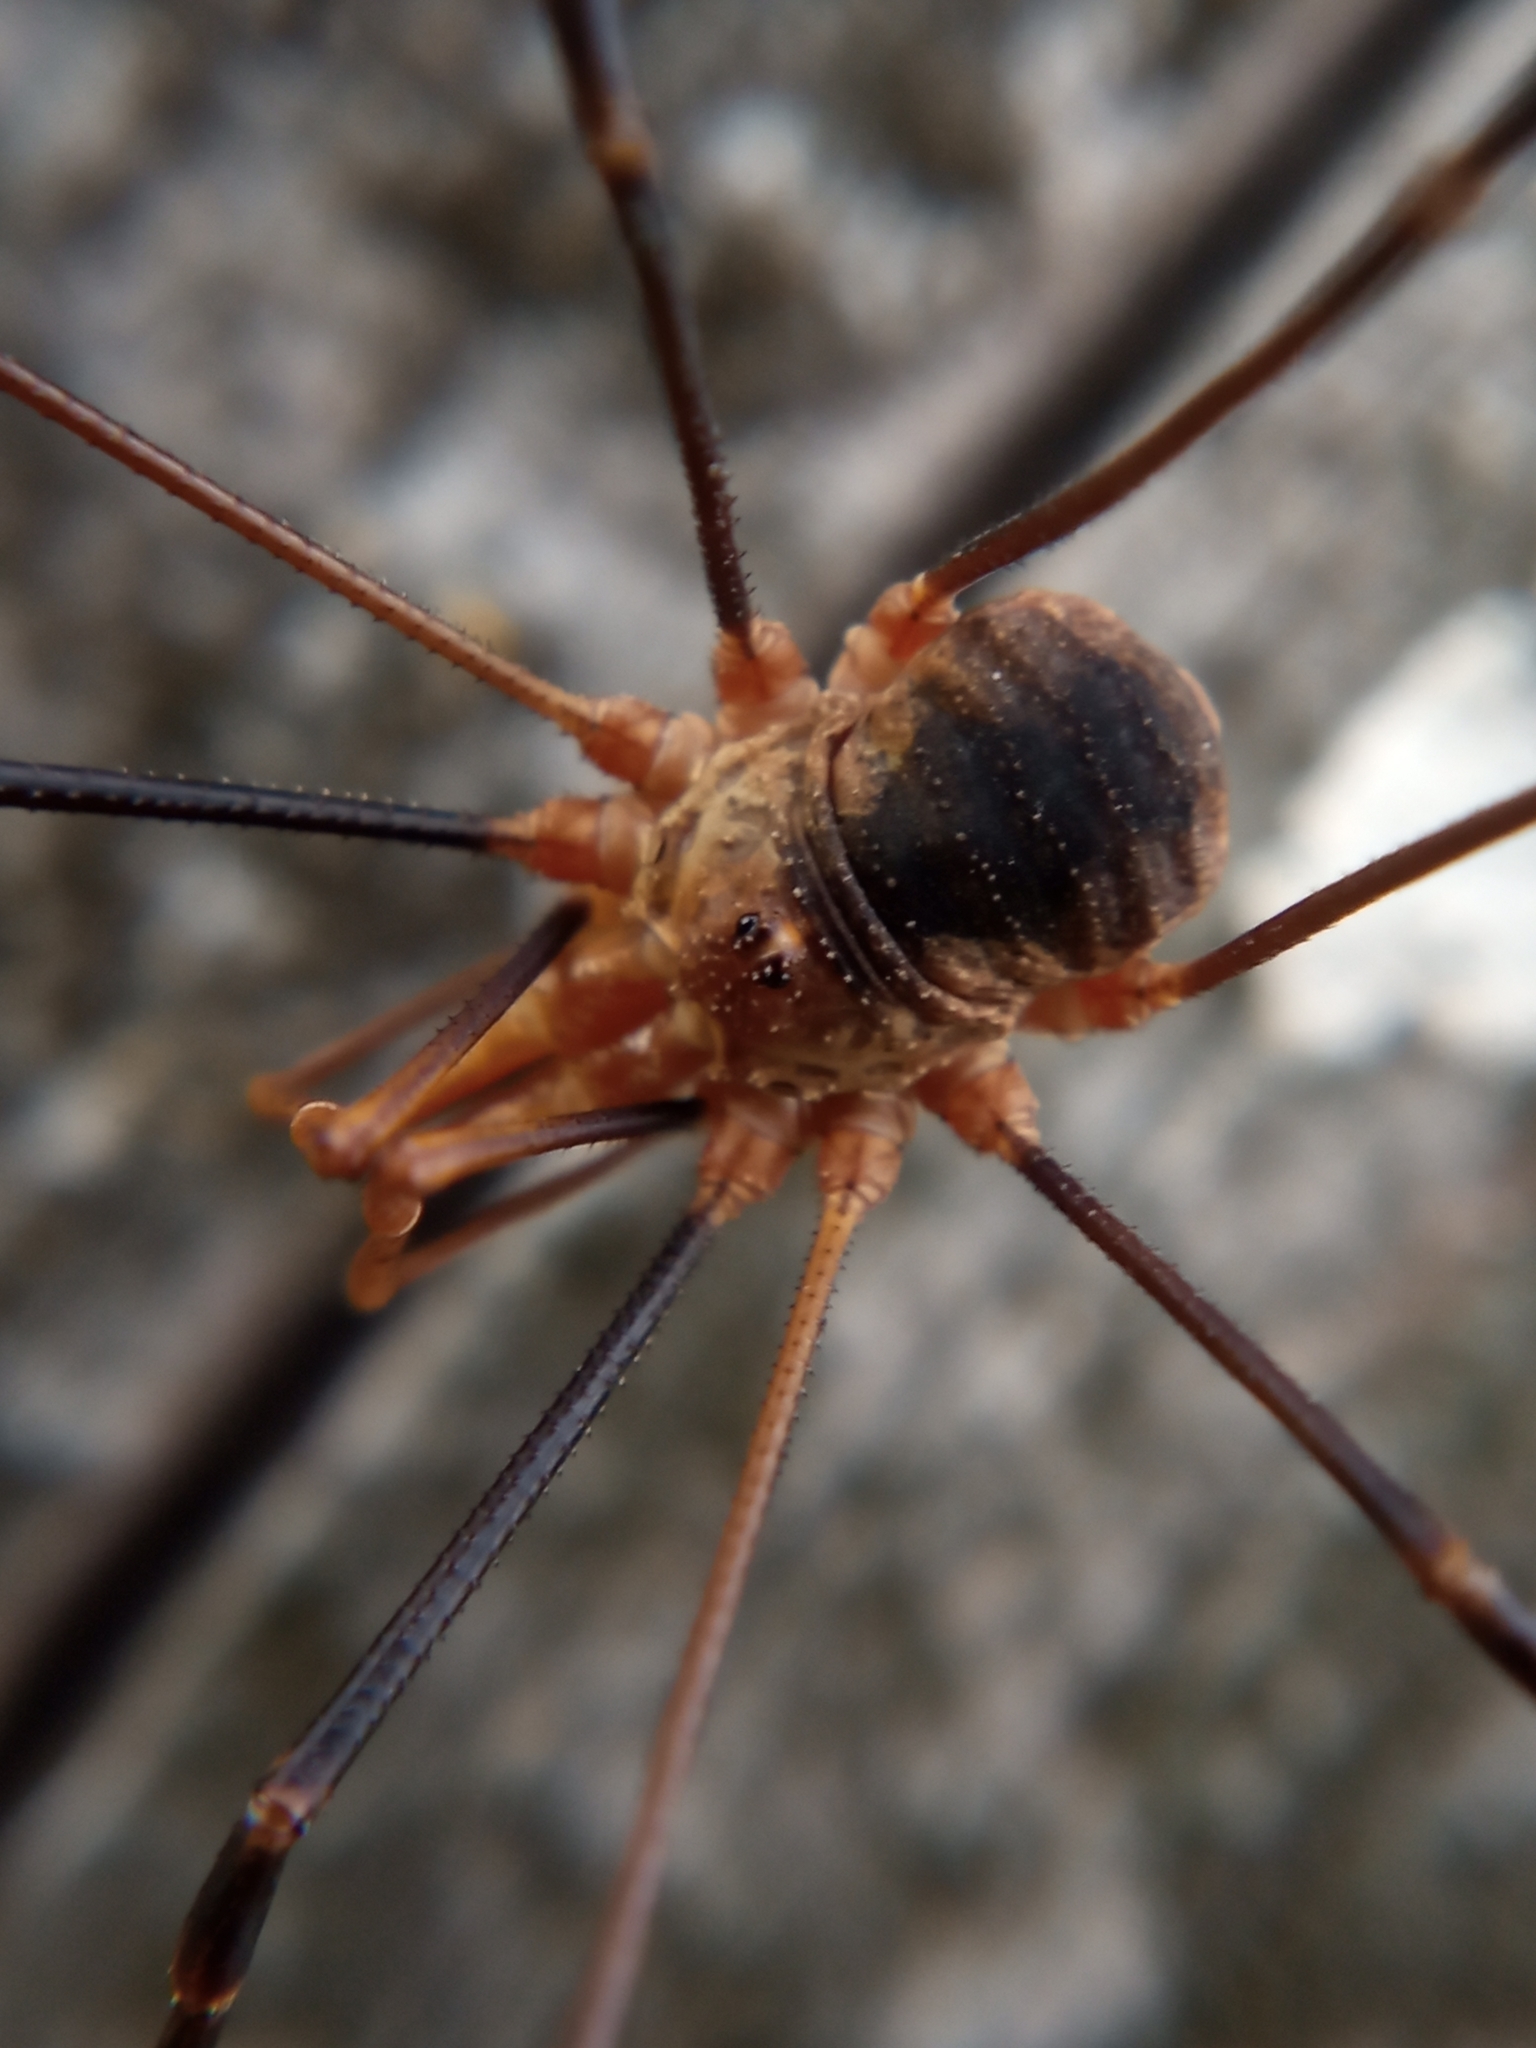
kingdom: Animalia
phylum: Arthropoda
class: Arachnida
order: Opiliones
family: Phalangiidae
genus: Phalangium
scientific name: Phalangium opilio
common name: Daddy longleg
